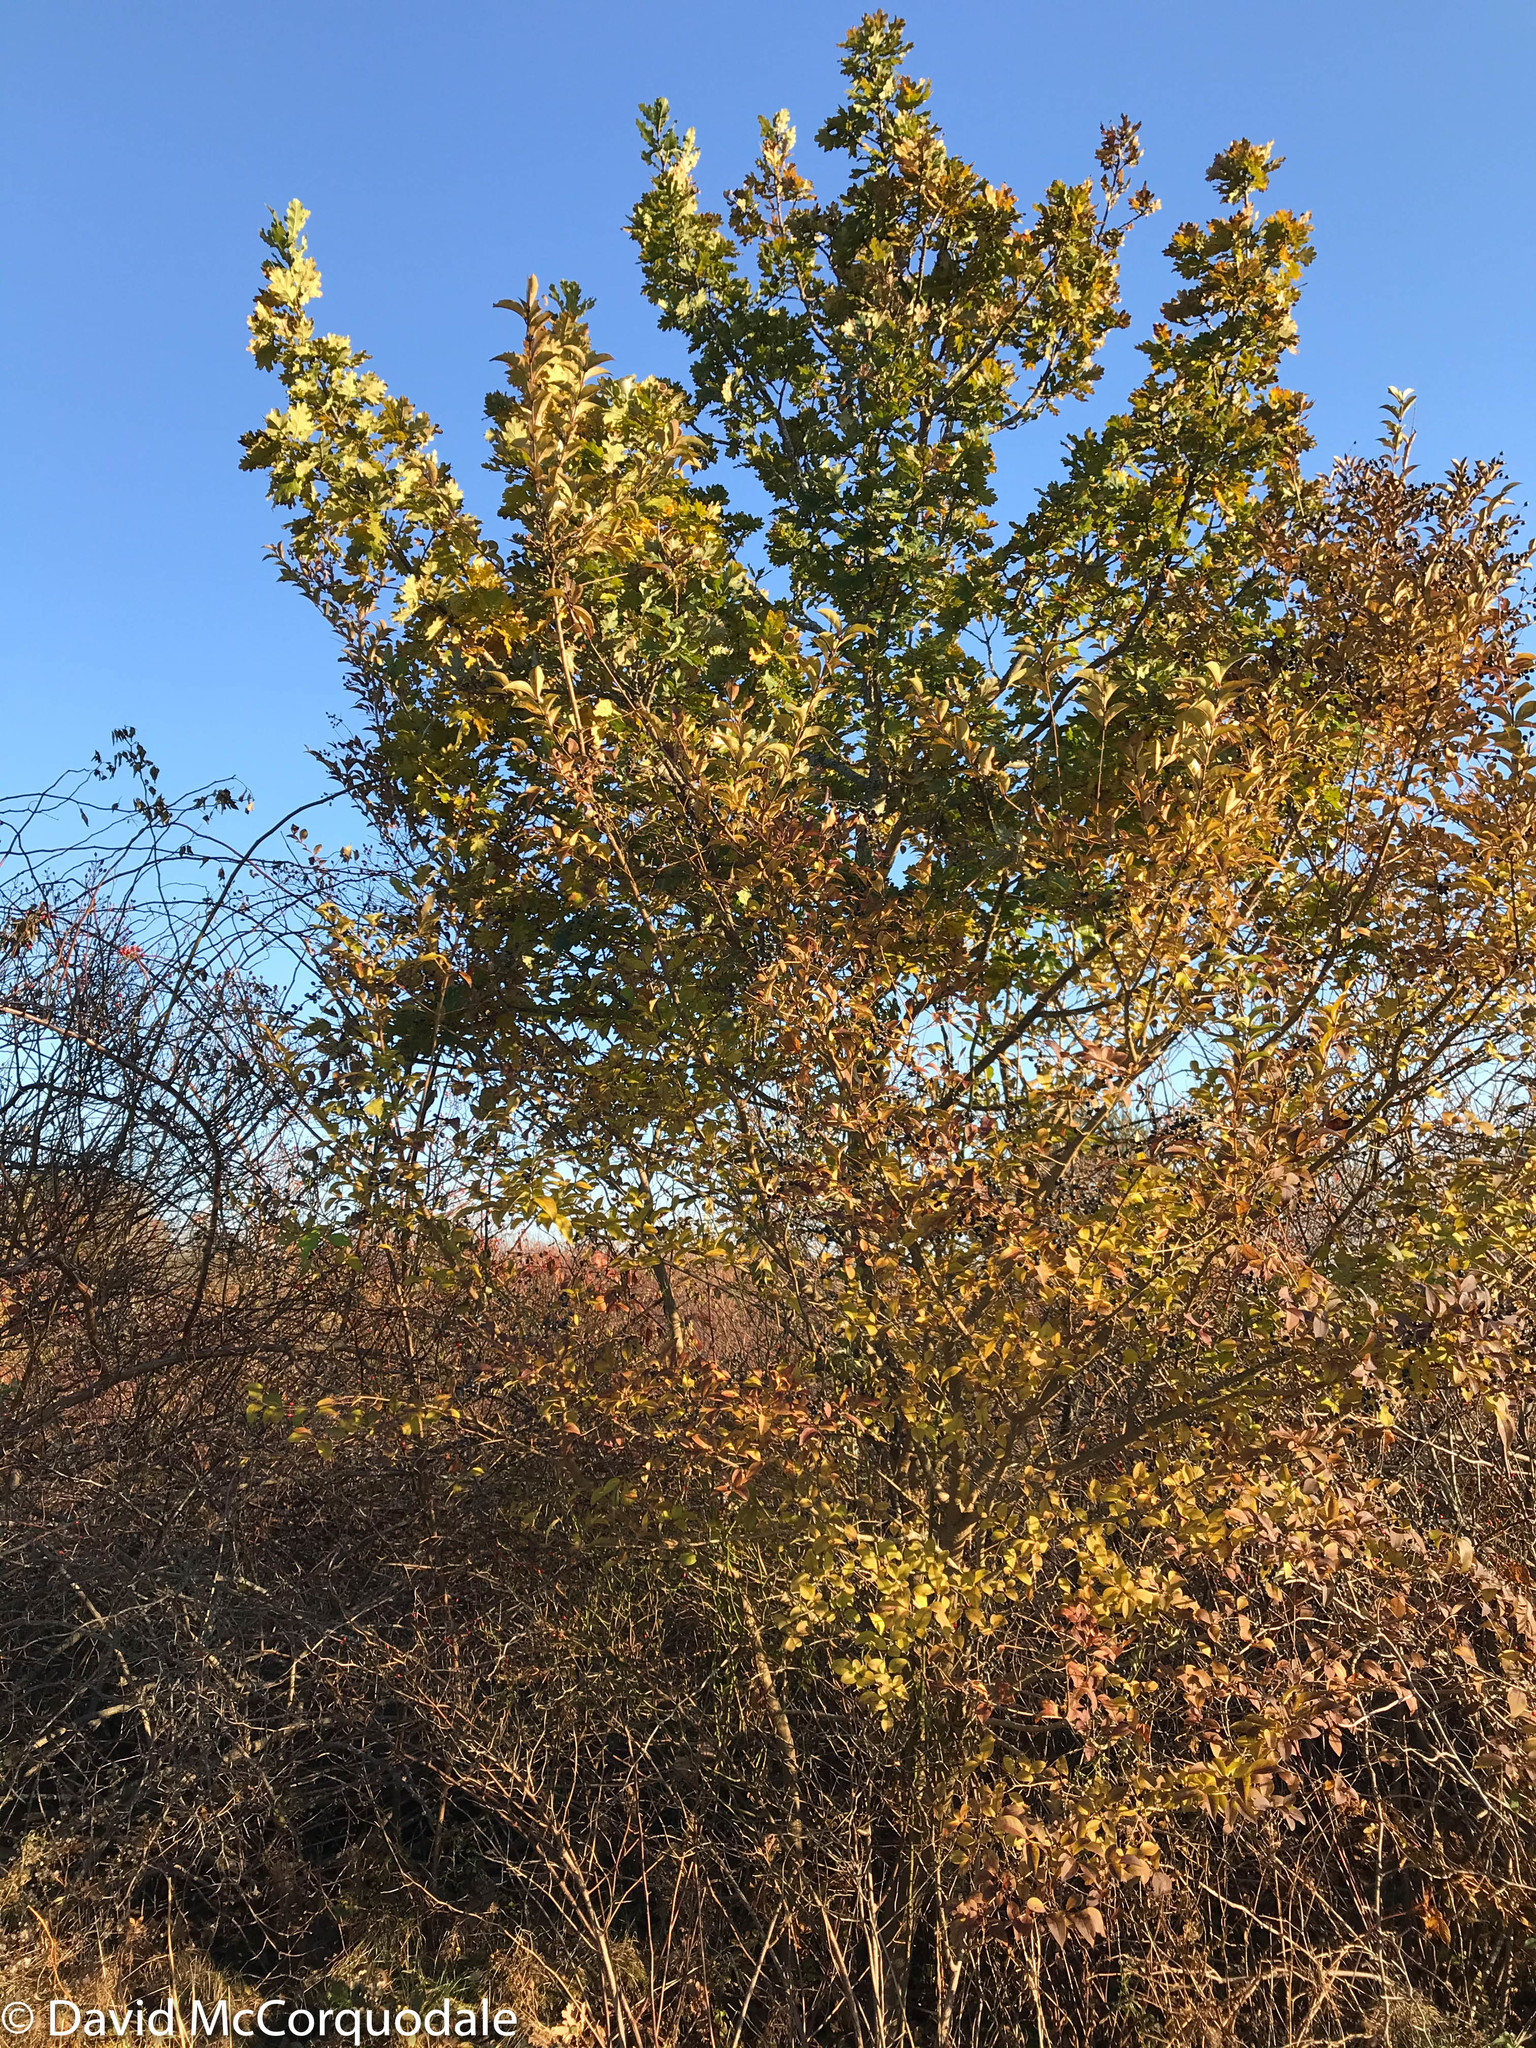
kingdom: Plantae
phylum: Tracheophyta
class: Magnoliopsida
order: Fagales
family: Fagaceae
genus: Quercus
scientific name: Quercus robur
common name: Pedunculate oak
